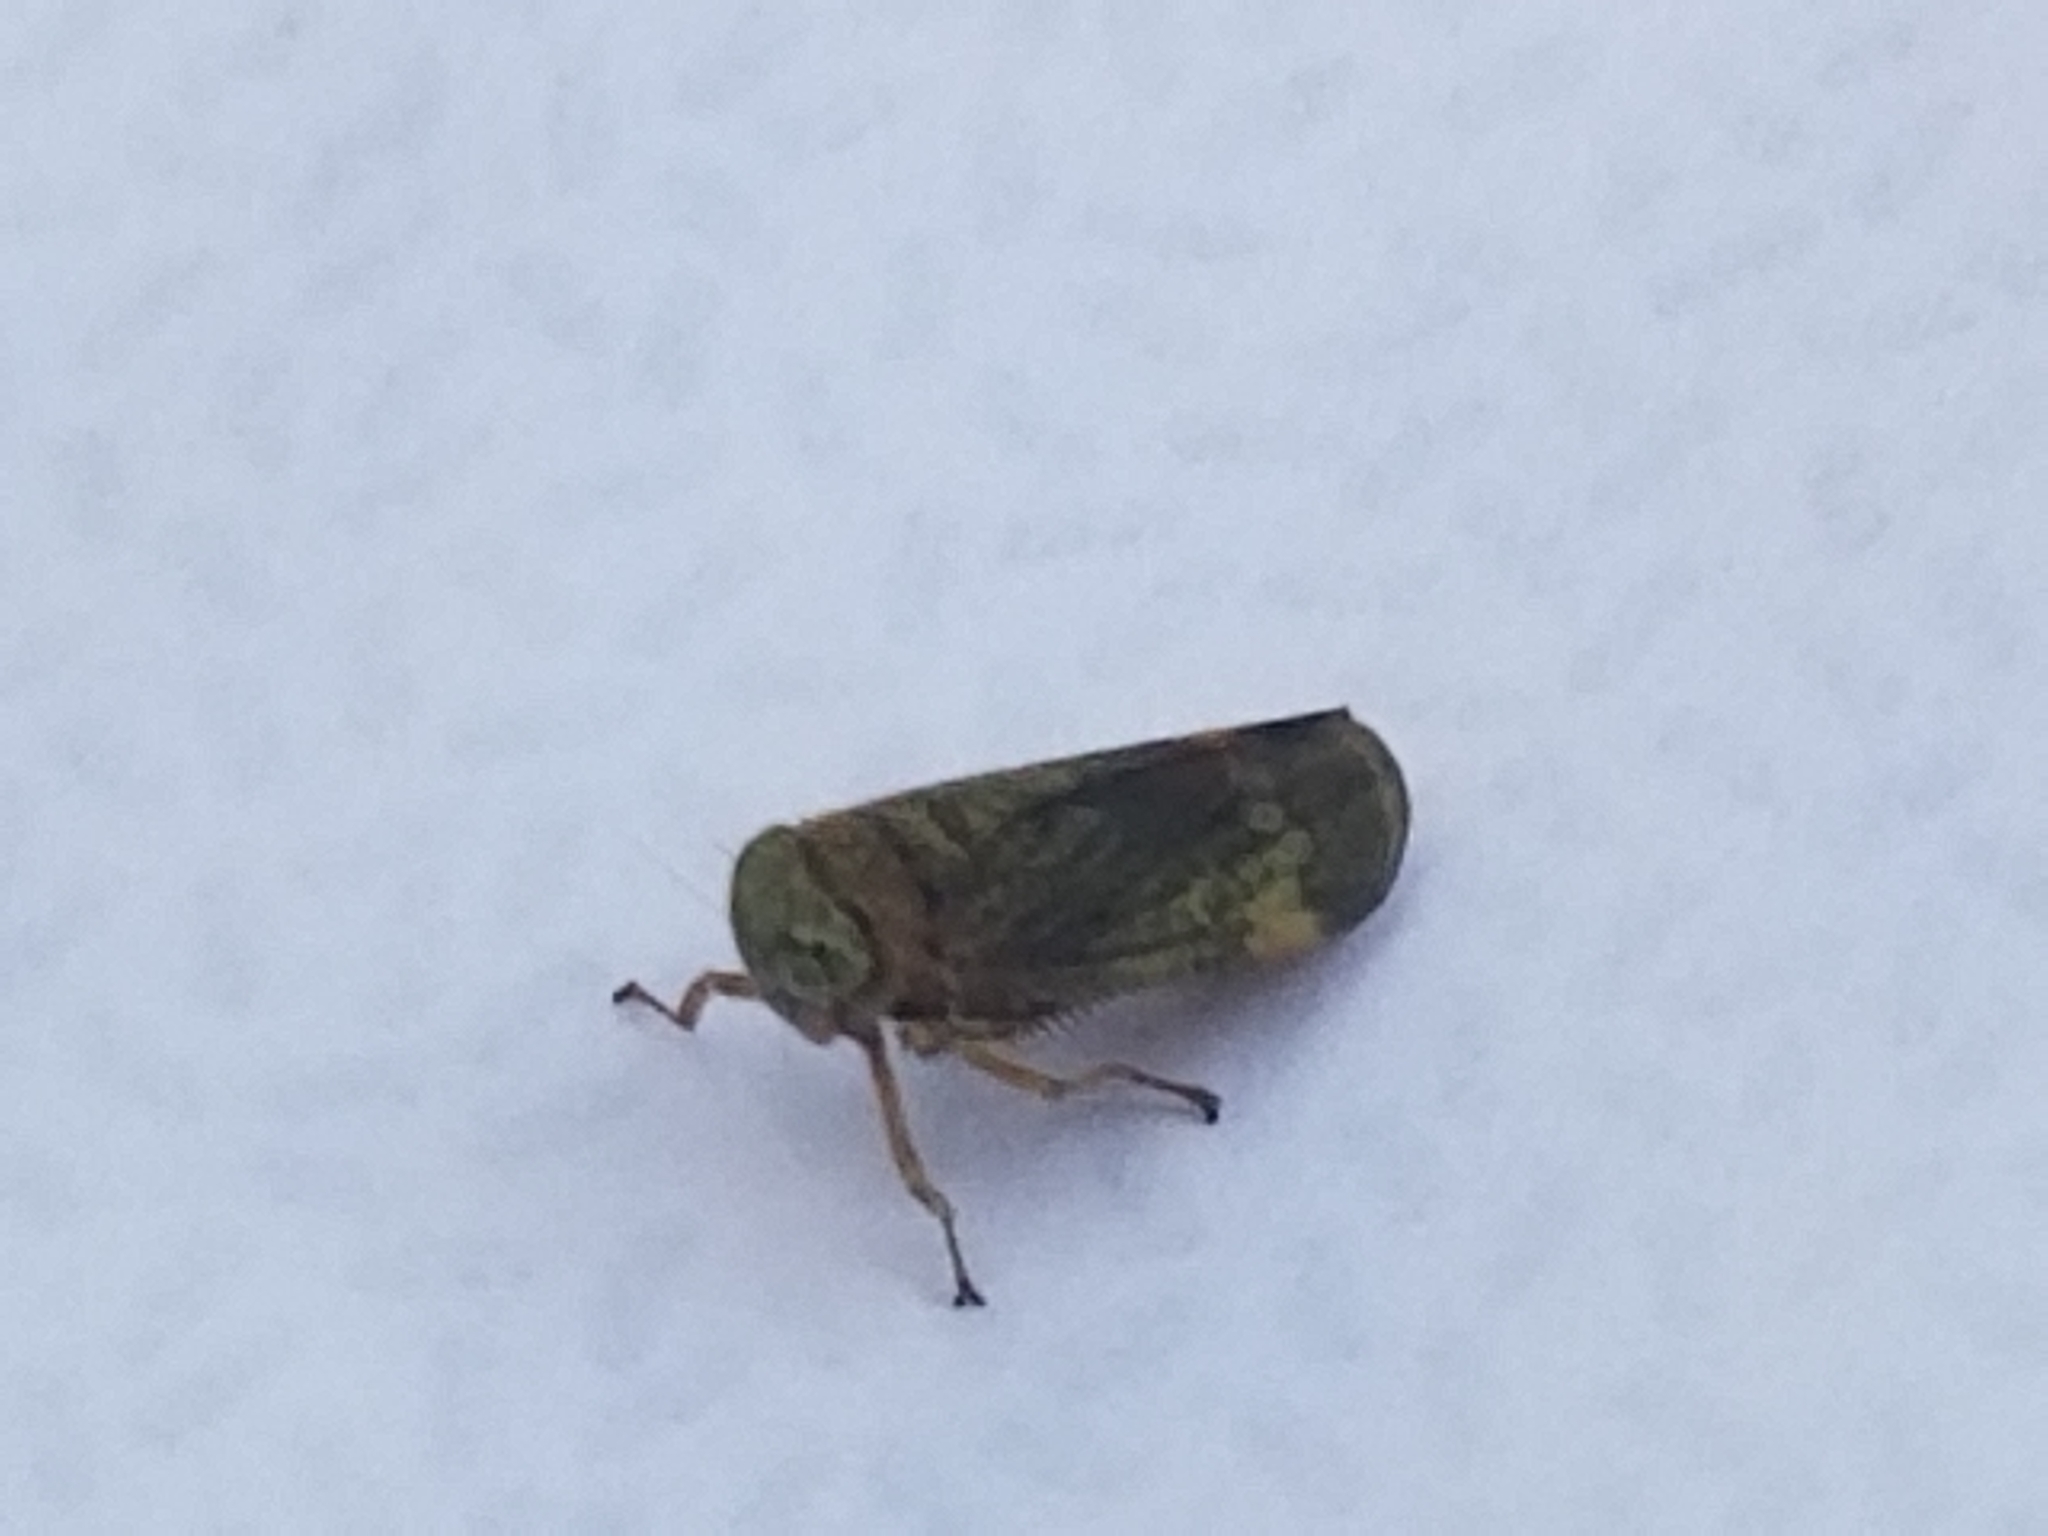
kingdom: Animalia
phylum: Arthropoda
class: Insecta
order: Hemiptera
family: Cicadellidae
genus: Jikradia
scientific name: Jikradia olitoria
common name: Coppery leafhopper
